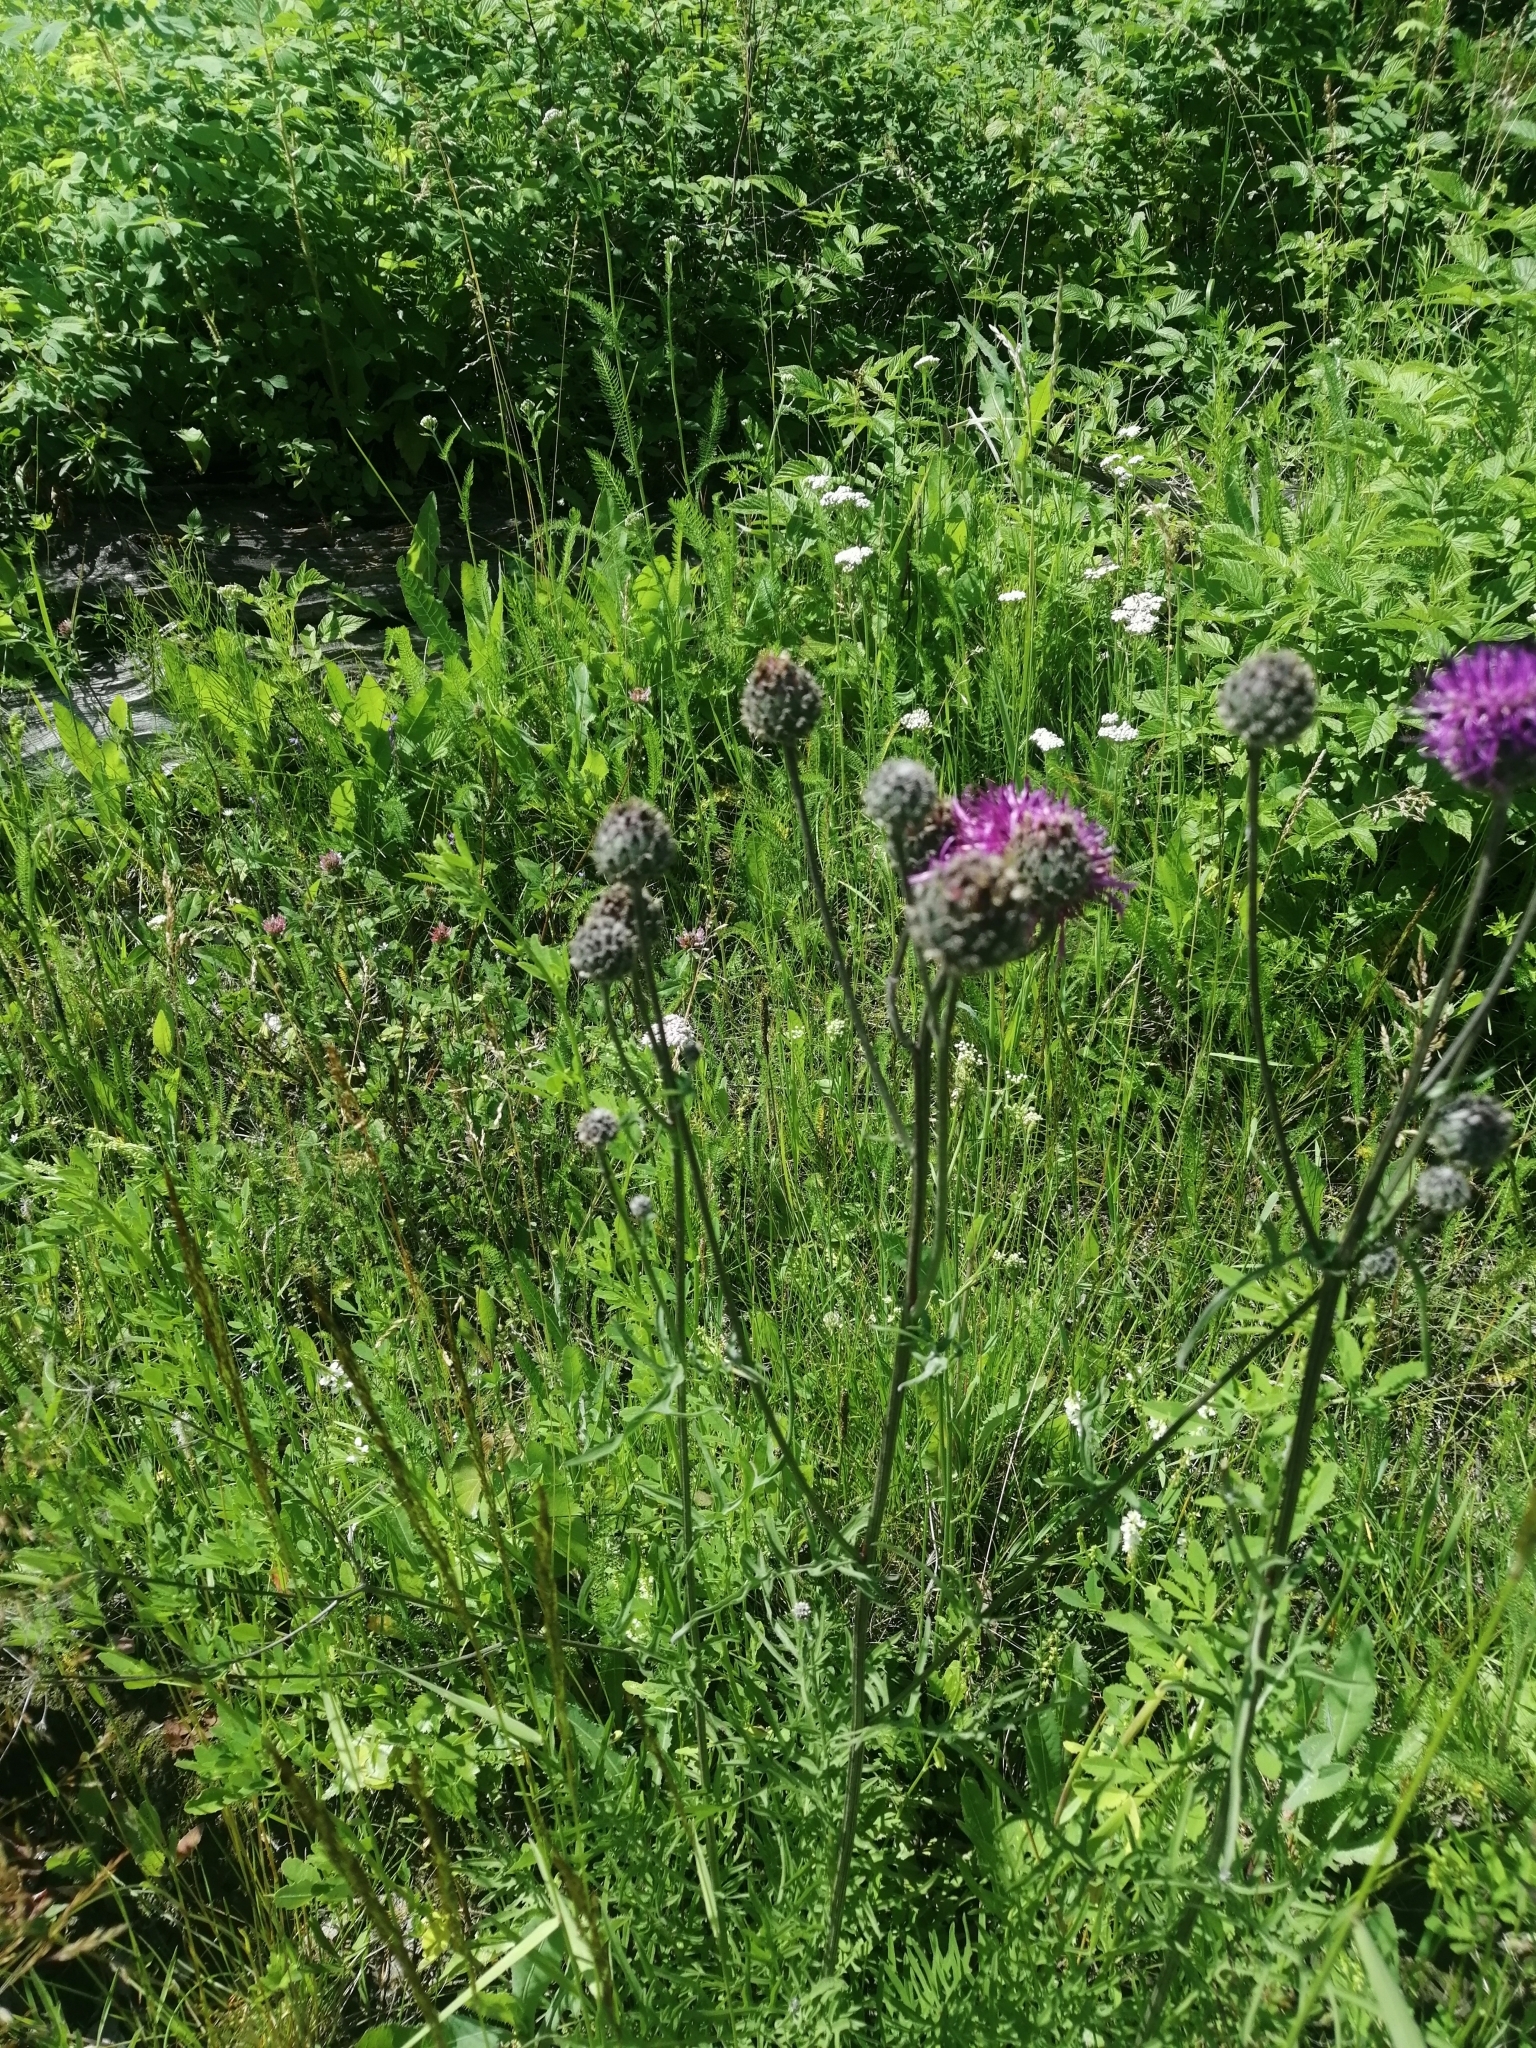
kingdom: Plantae
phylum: Tracheophyta
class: Magnoliopsida
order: Asterales
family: Asteraceae
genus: Centaurea
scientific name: Centaurea scabiosa
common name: Greater knapweed
